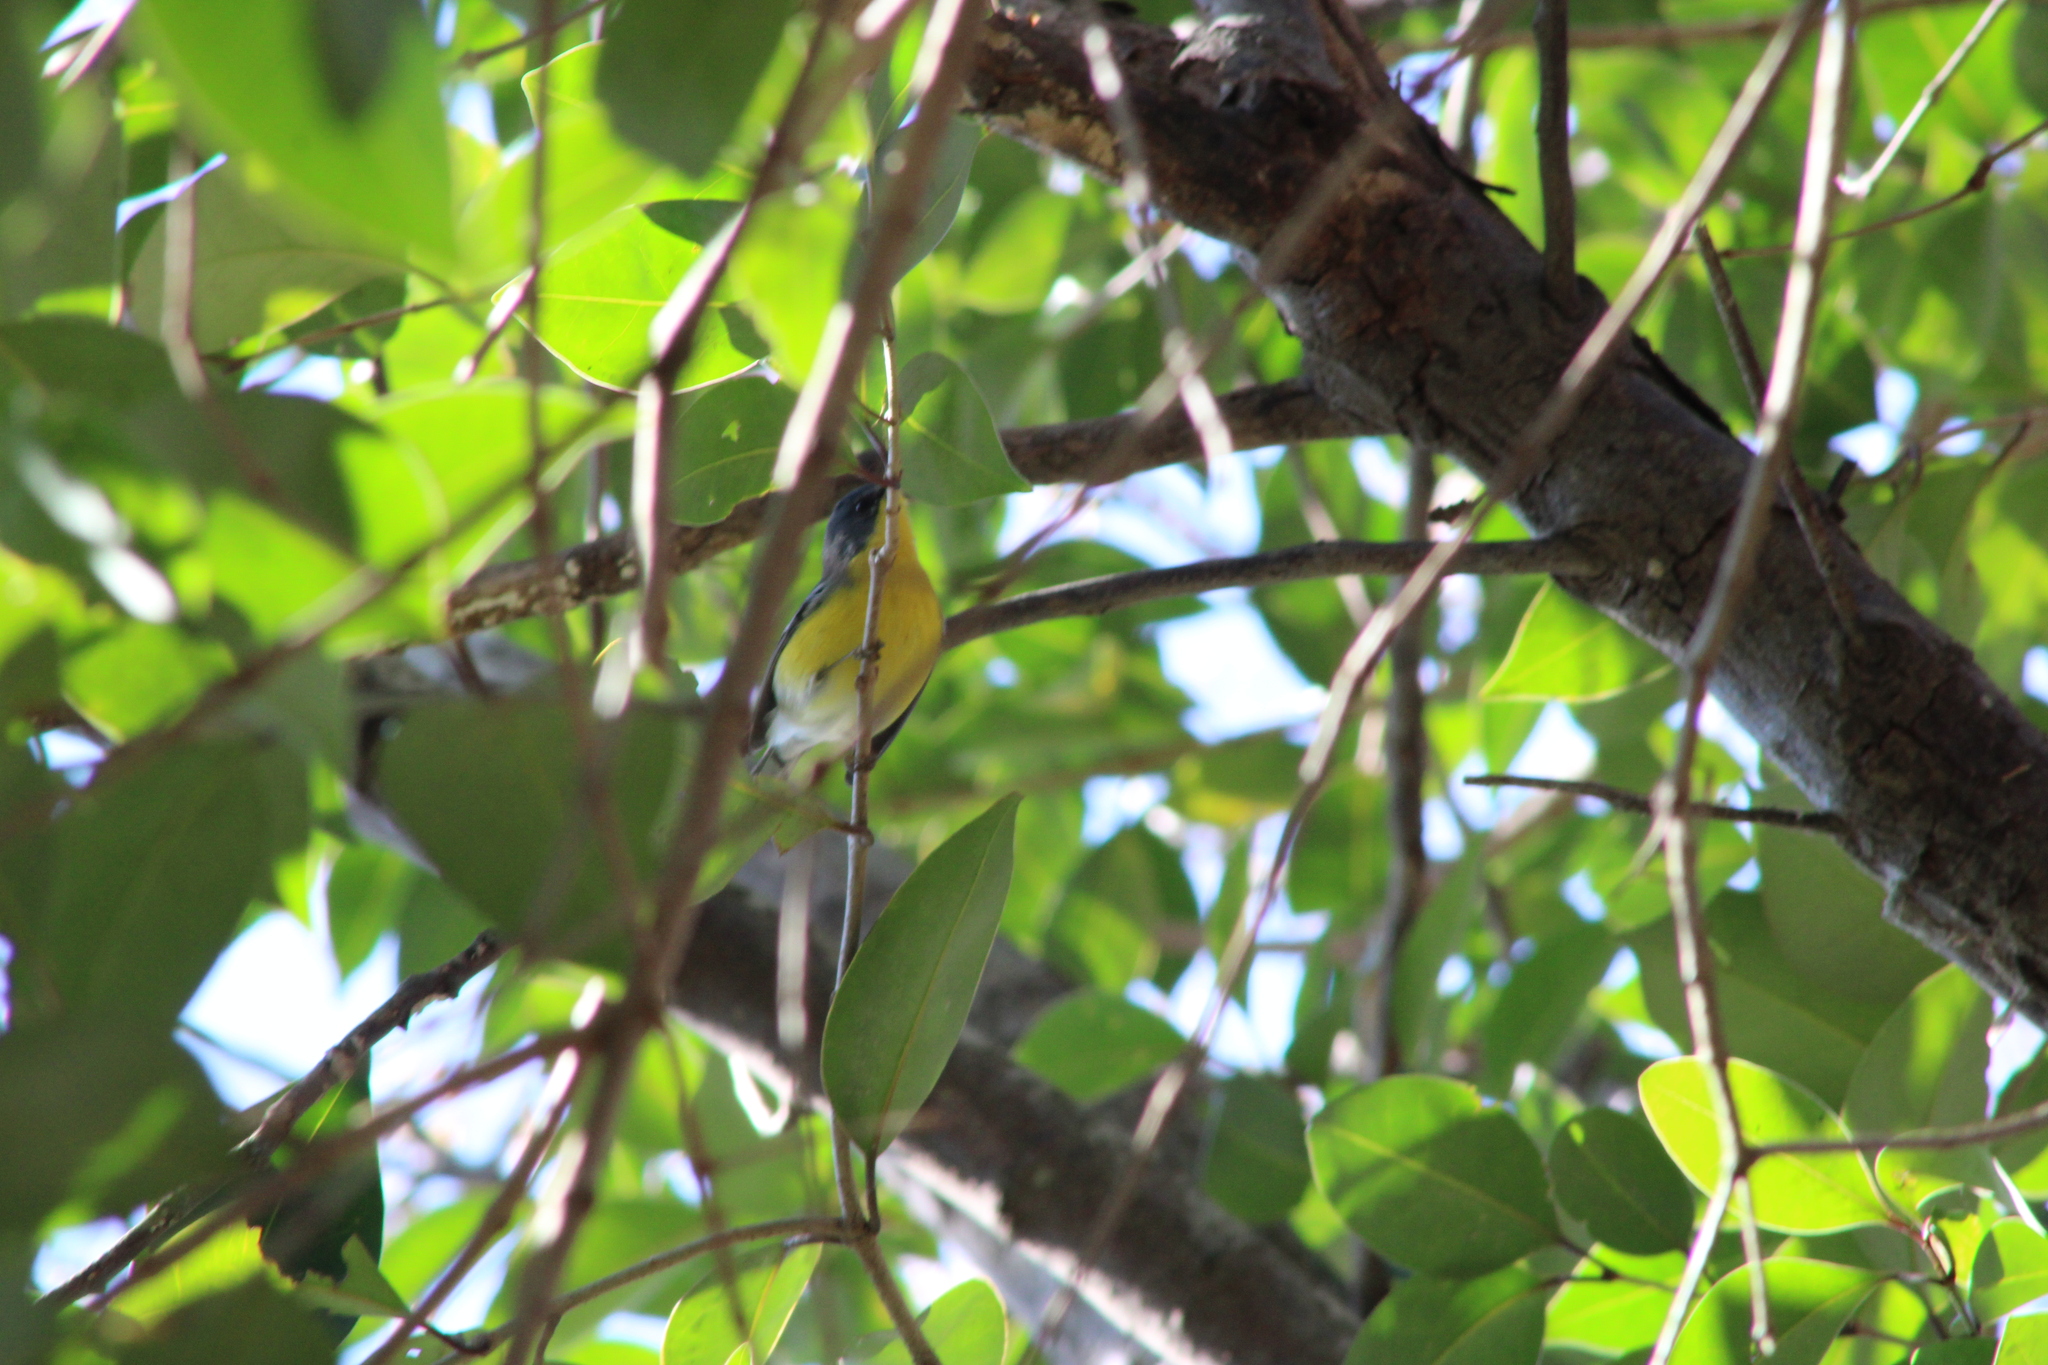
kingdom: Animalia
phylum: Chordata
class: Aves
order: Passeriformes
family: Parulidae
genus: Setophaga
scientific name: Setophaga pitiayumi
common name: Tropical parula
